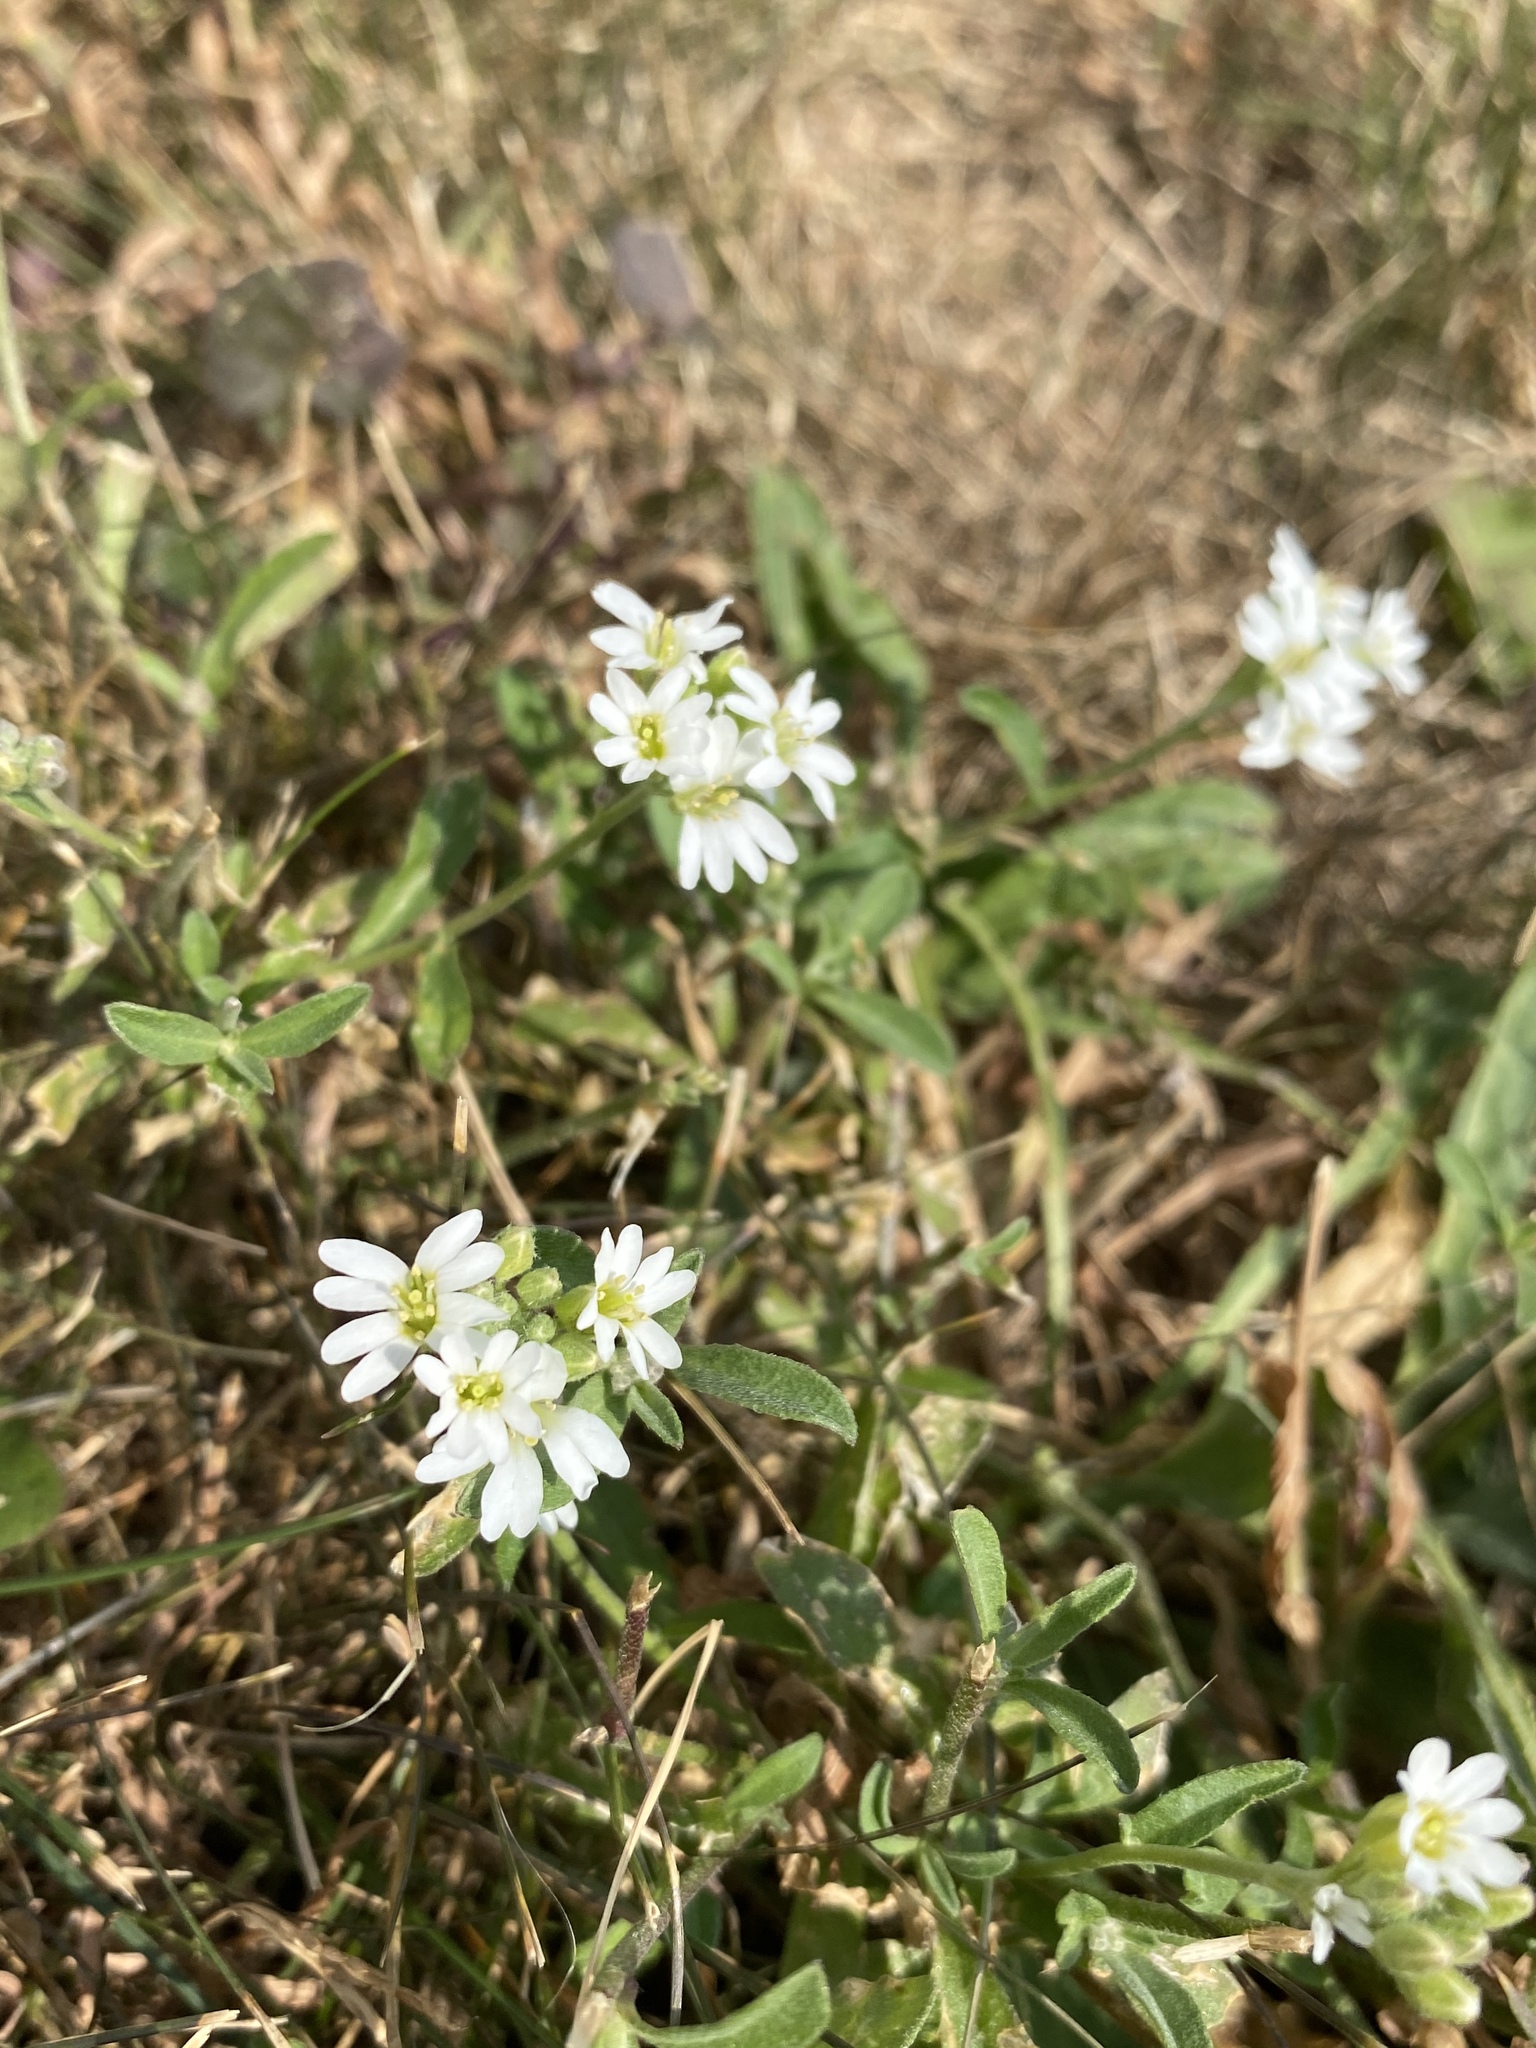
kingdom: Plantae
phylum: Tracheophyta
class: Magnoliopsida
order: Brassicales
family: Brassicaceae
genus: Berteroa
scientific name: Berteroa incana
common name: Hoary alison
